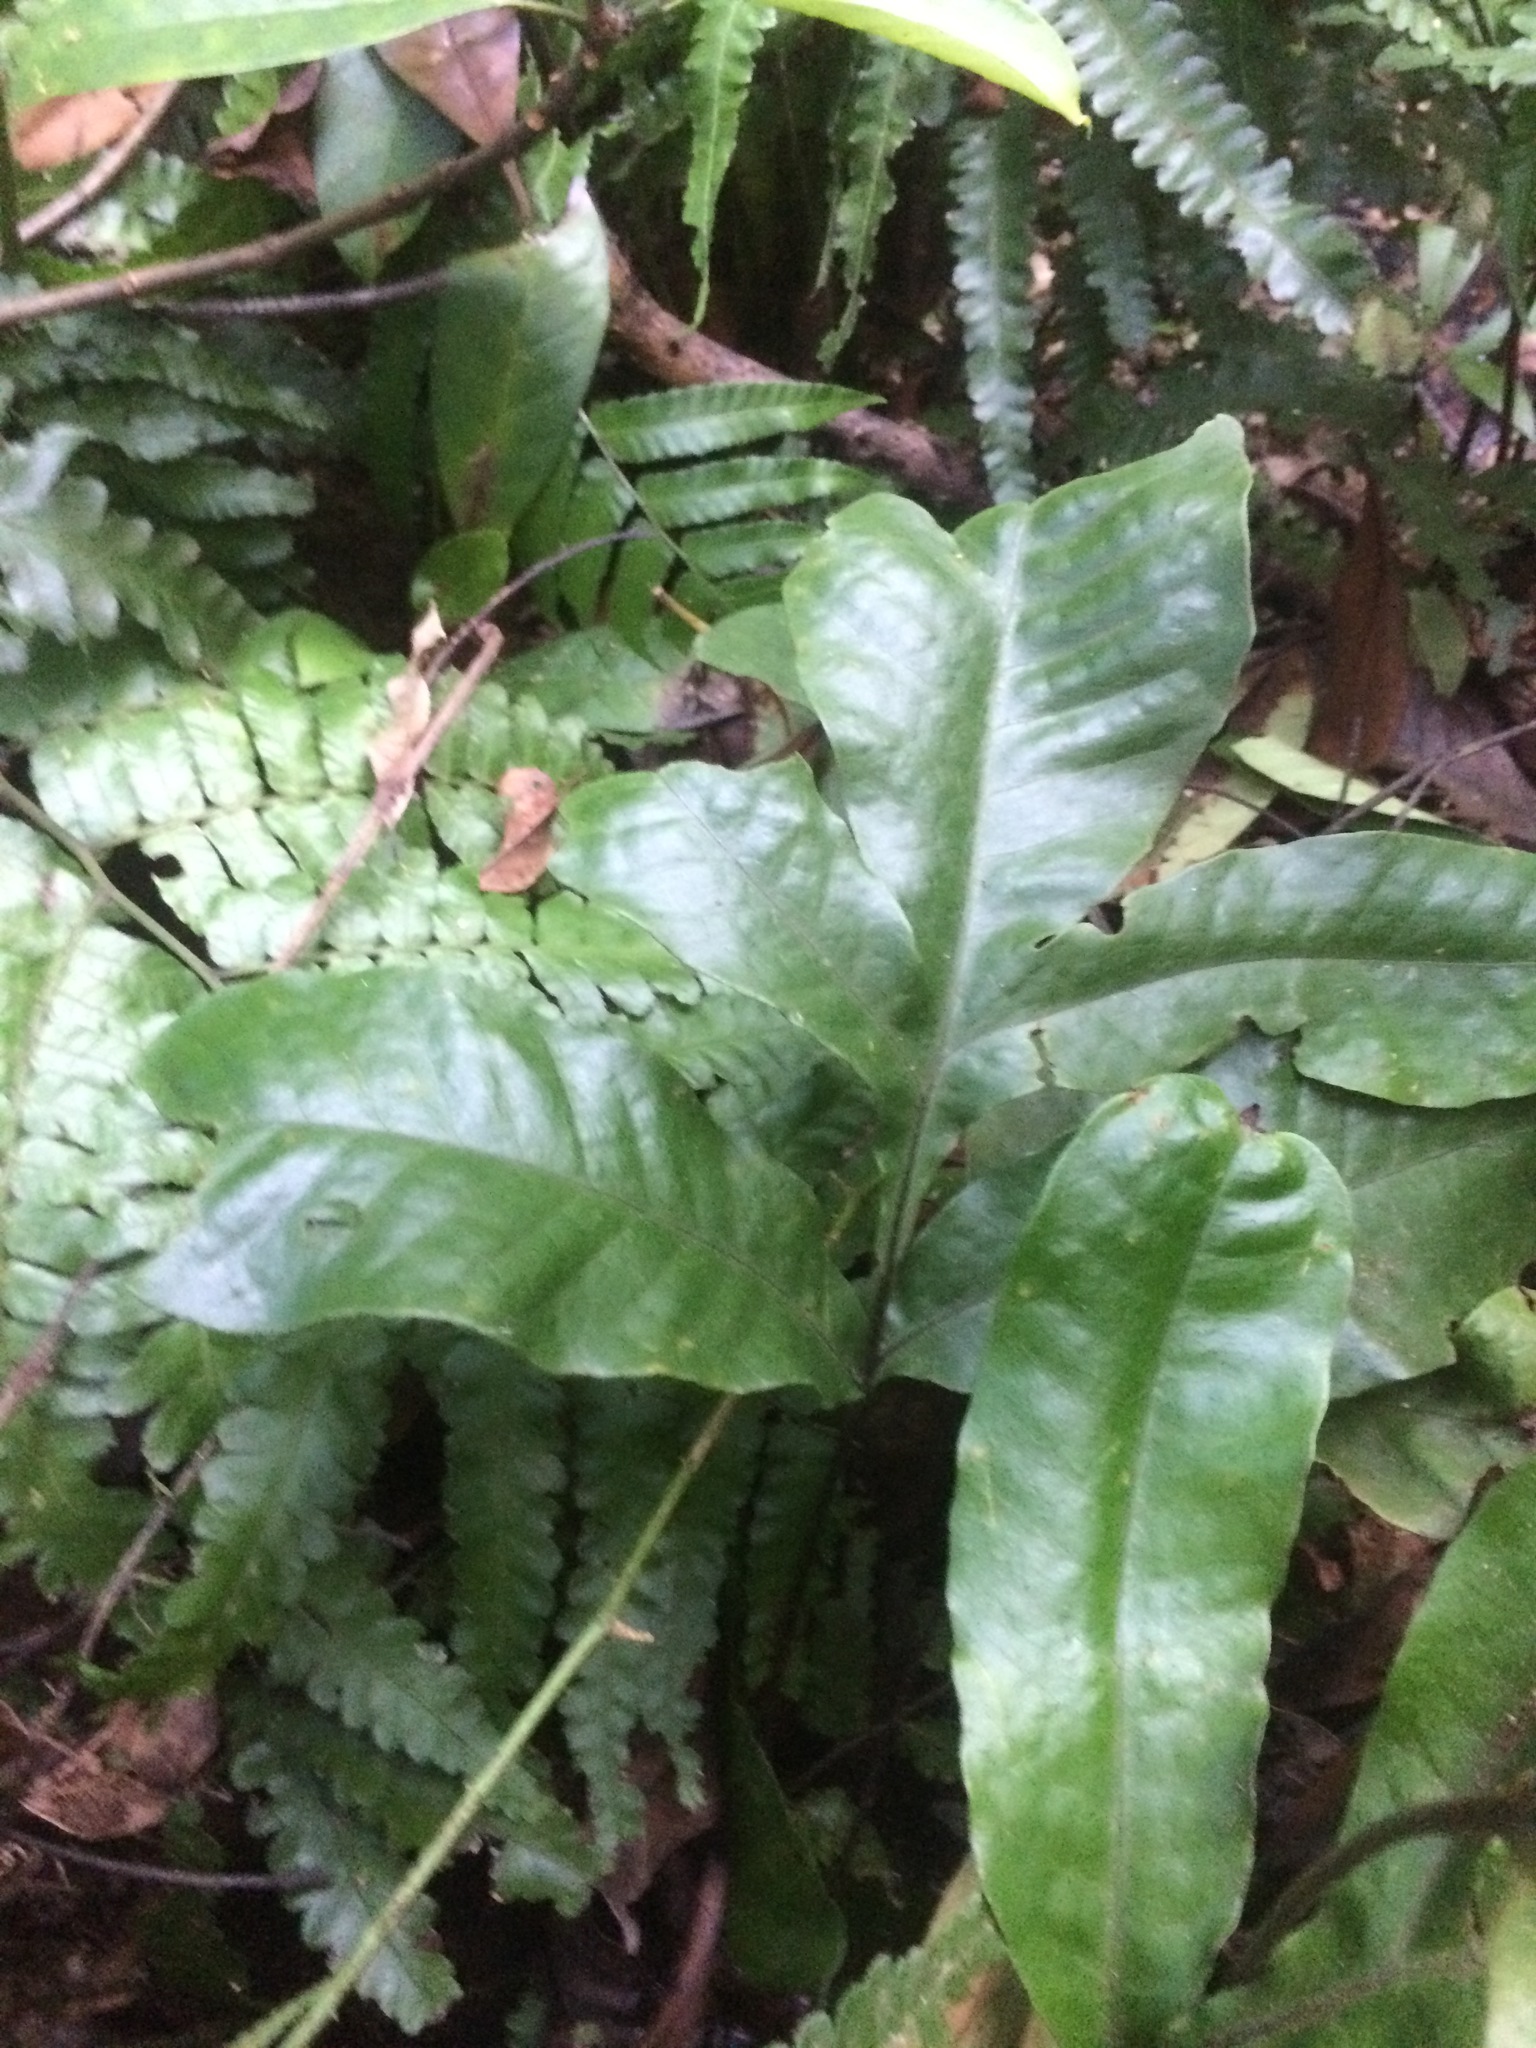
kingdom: Plantae
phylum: Tracheophyta
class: Polypodiopsida
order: Polypodiales
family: Tectariaceae
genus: Tectaria
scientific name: Tectaria harlandii
